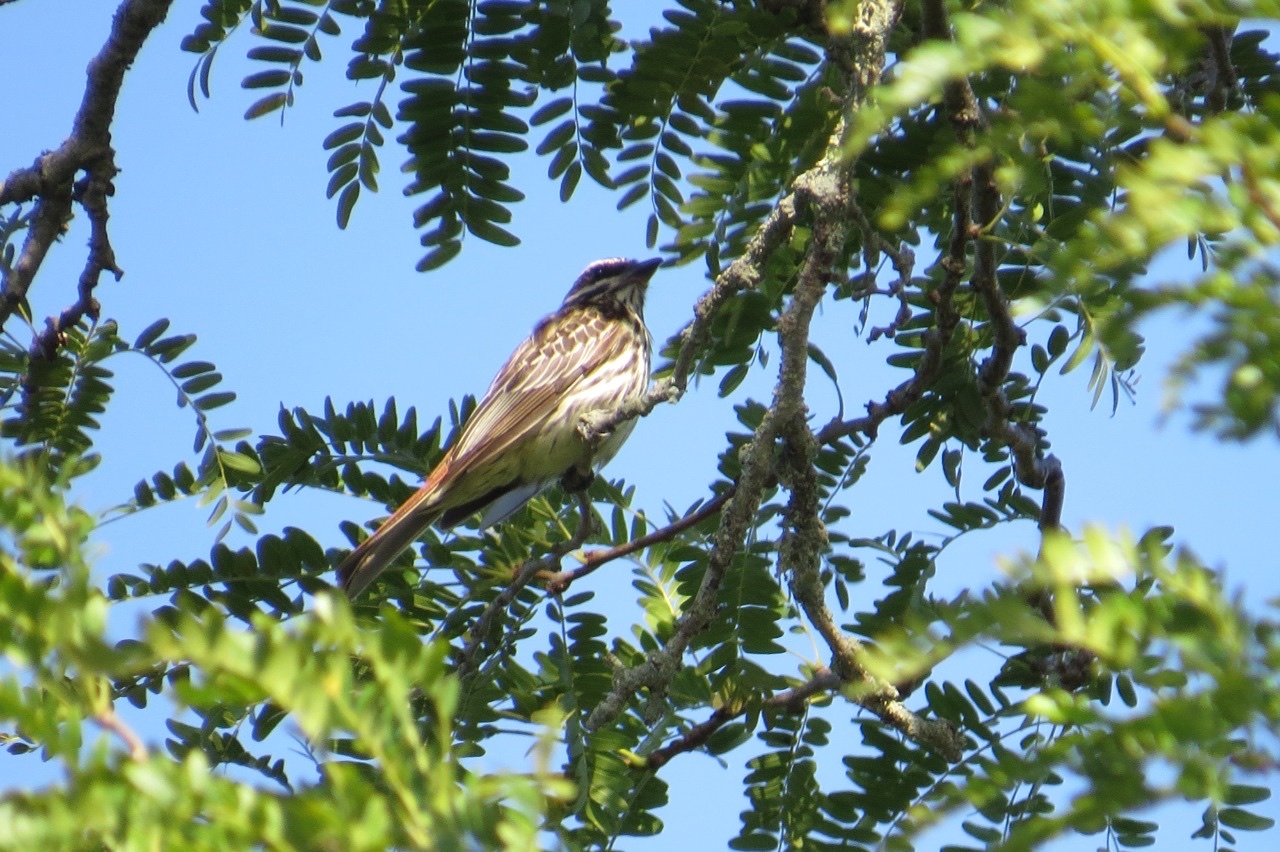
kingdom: Animalia
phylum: Chordata
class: Aves
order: Passeriformes
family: Tyrannidae
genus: Myiodynastes
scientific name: Myiodynastes maculatus
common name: Streaked flycatcher
